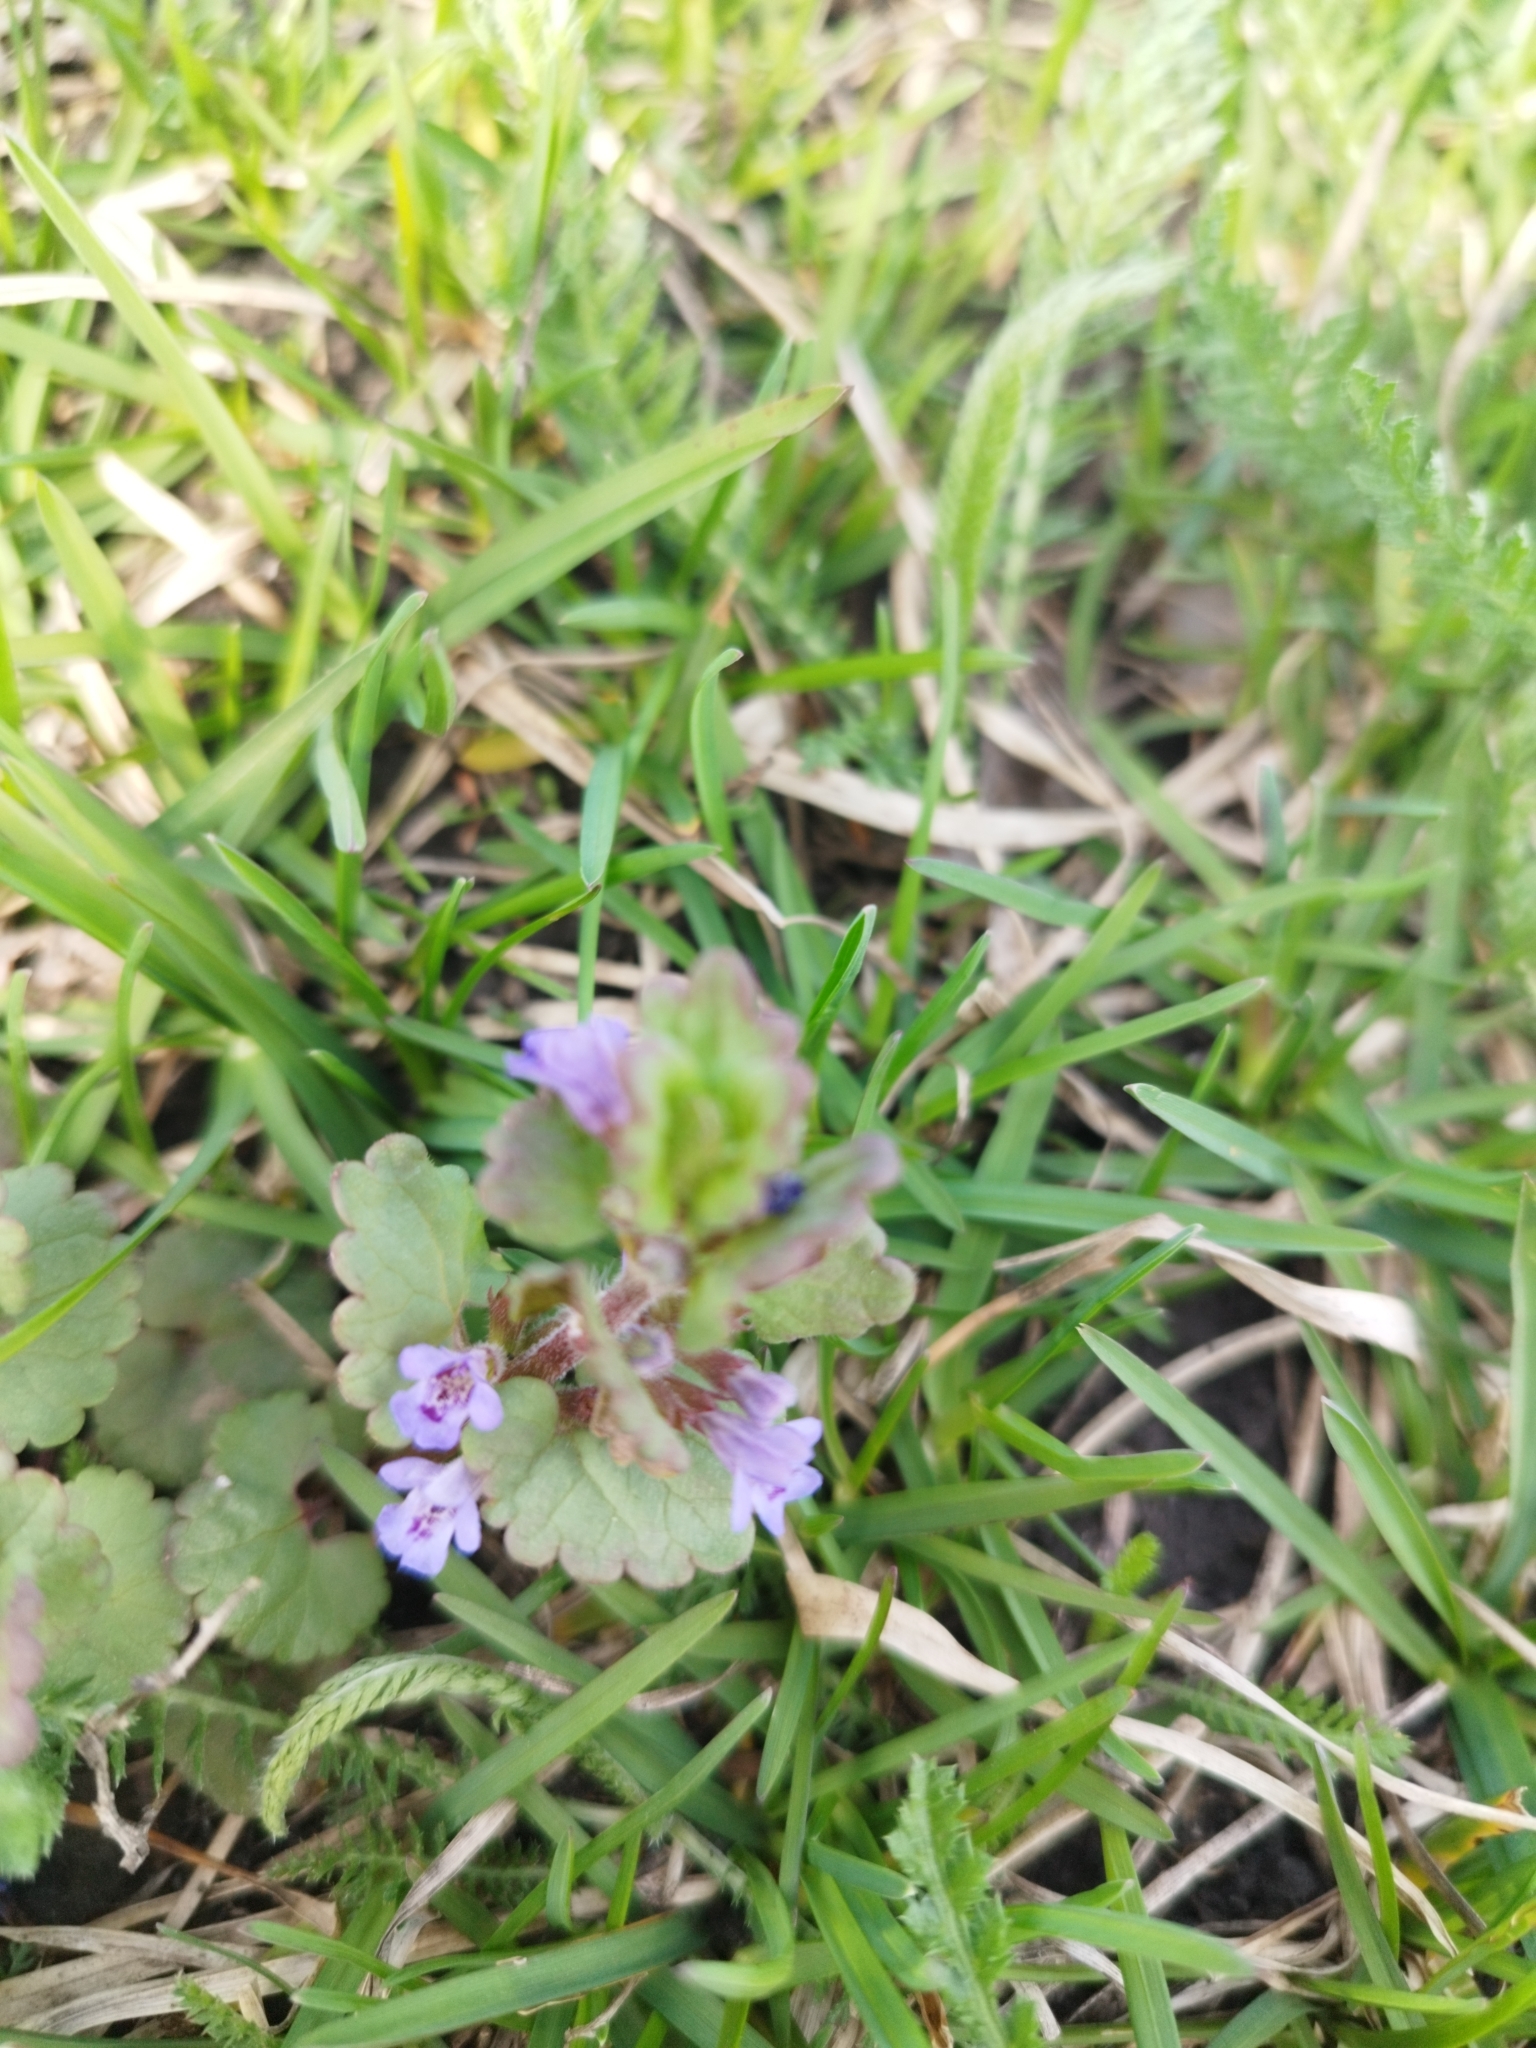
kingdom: Plantae
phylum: Tracheophyta
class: Magnoliopsida
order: Lamiales
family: Lamiaceae
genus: Glechoma
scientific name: Glechoma hederacea
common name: Ground ivy
